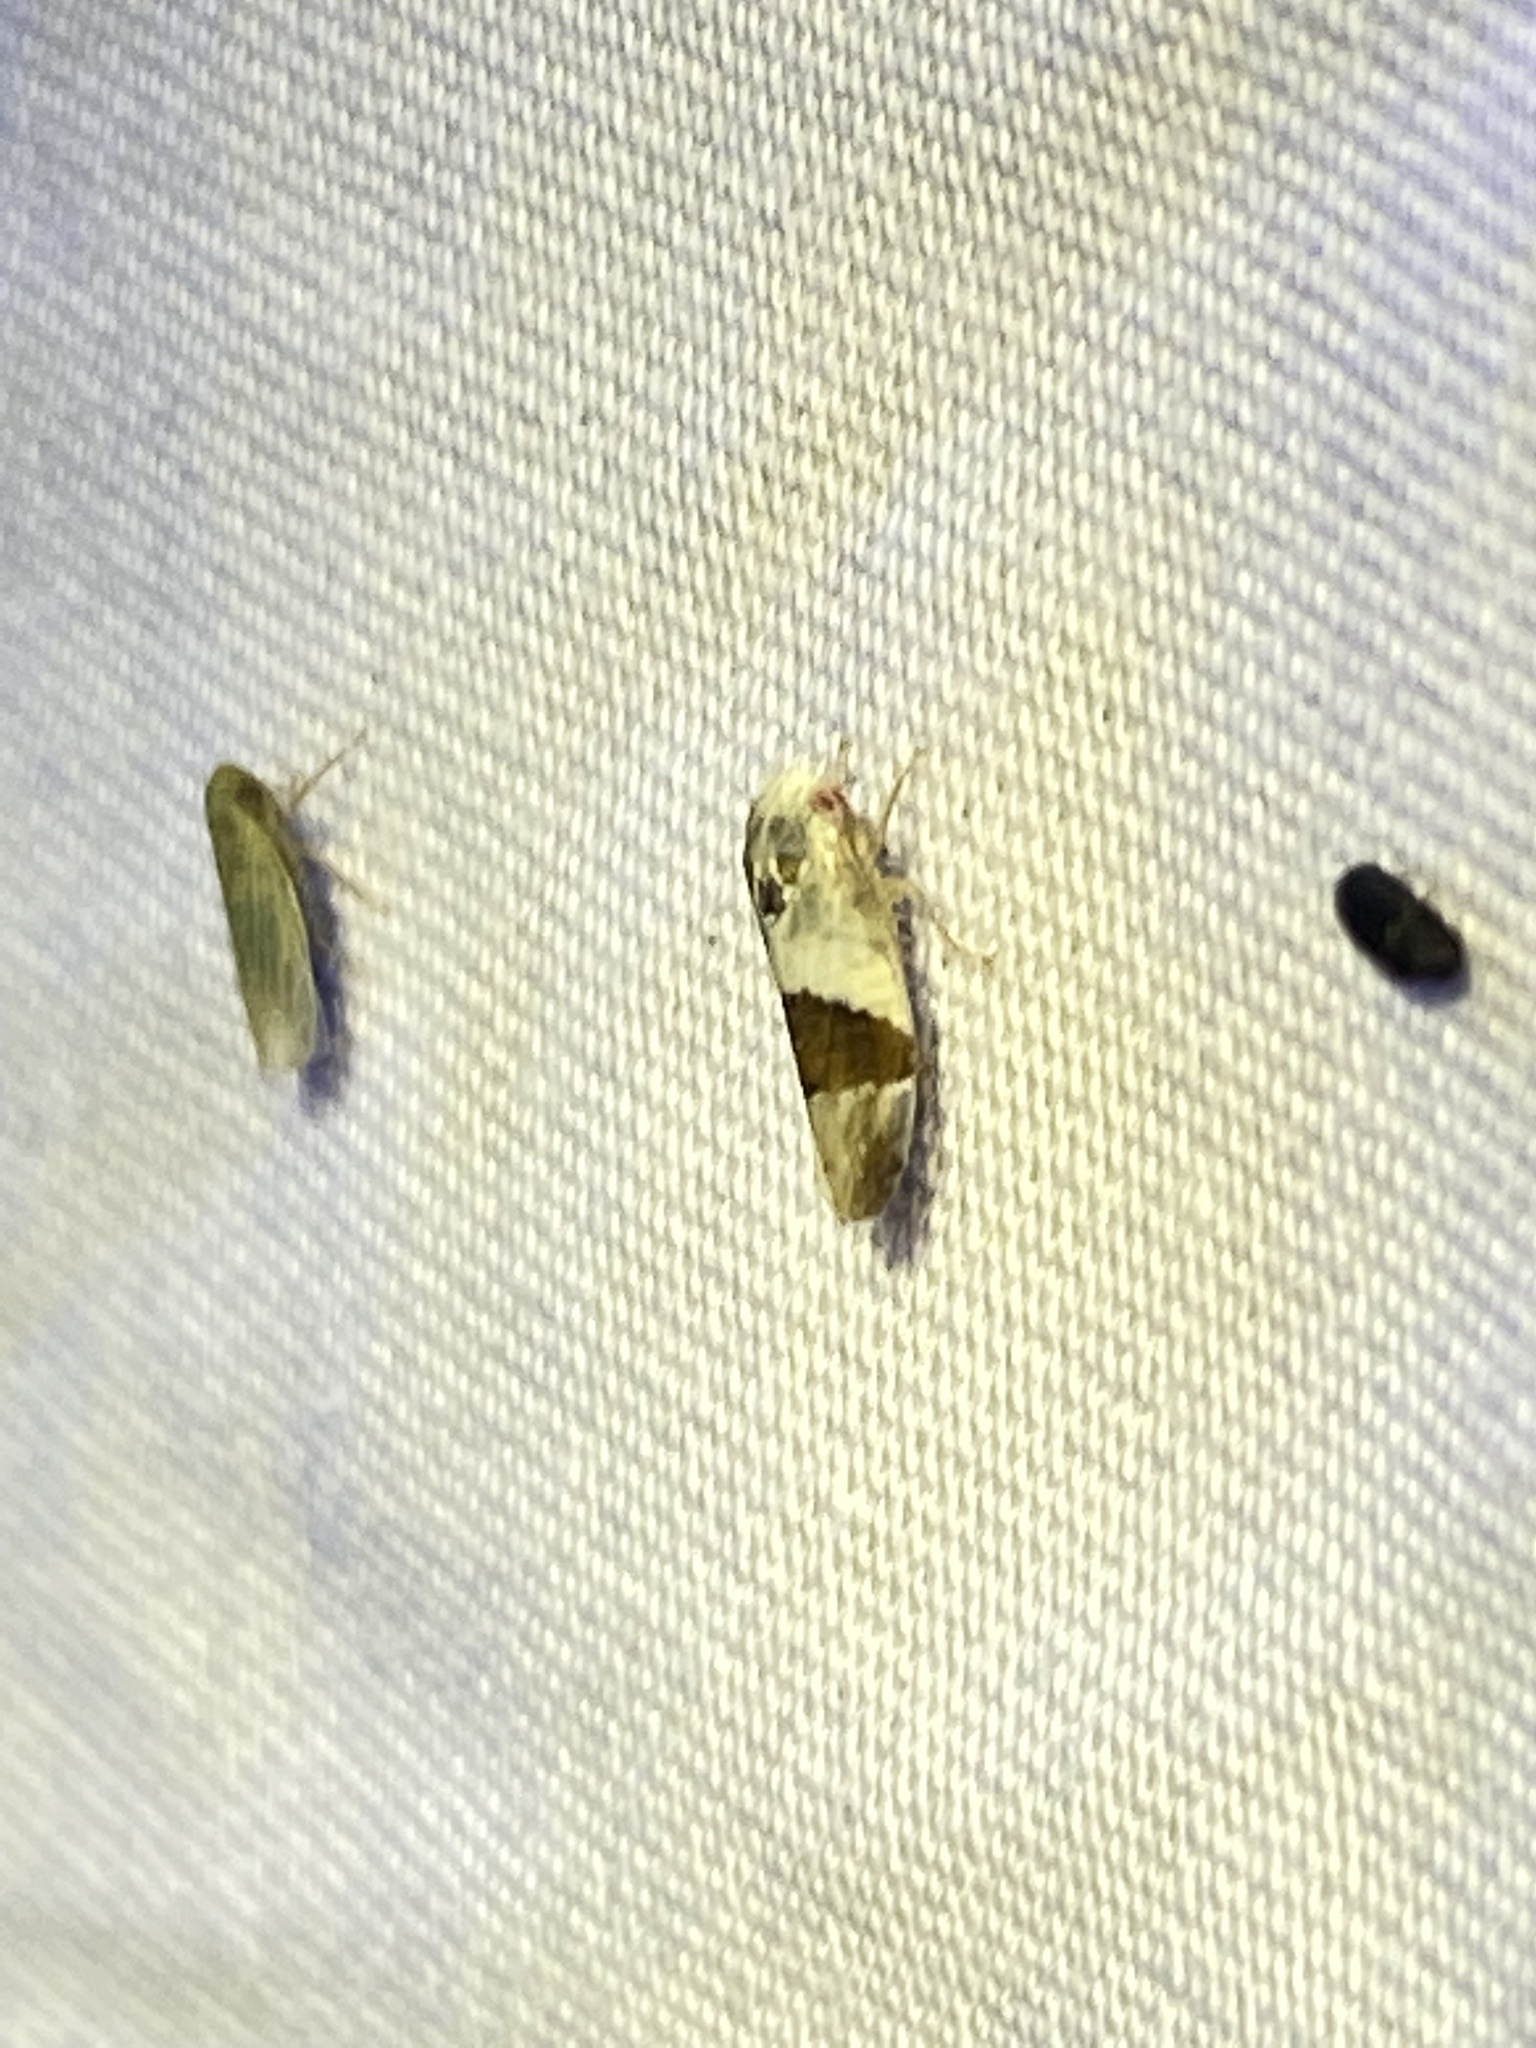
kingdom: Animalia
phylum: Arthropoda
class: Insecta
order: Hemiptera
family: Cicadellidae
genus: Norvellina
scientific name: Norvellina seminuda
